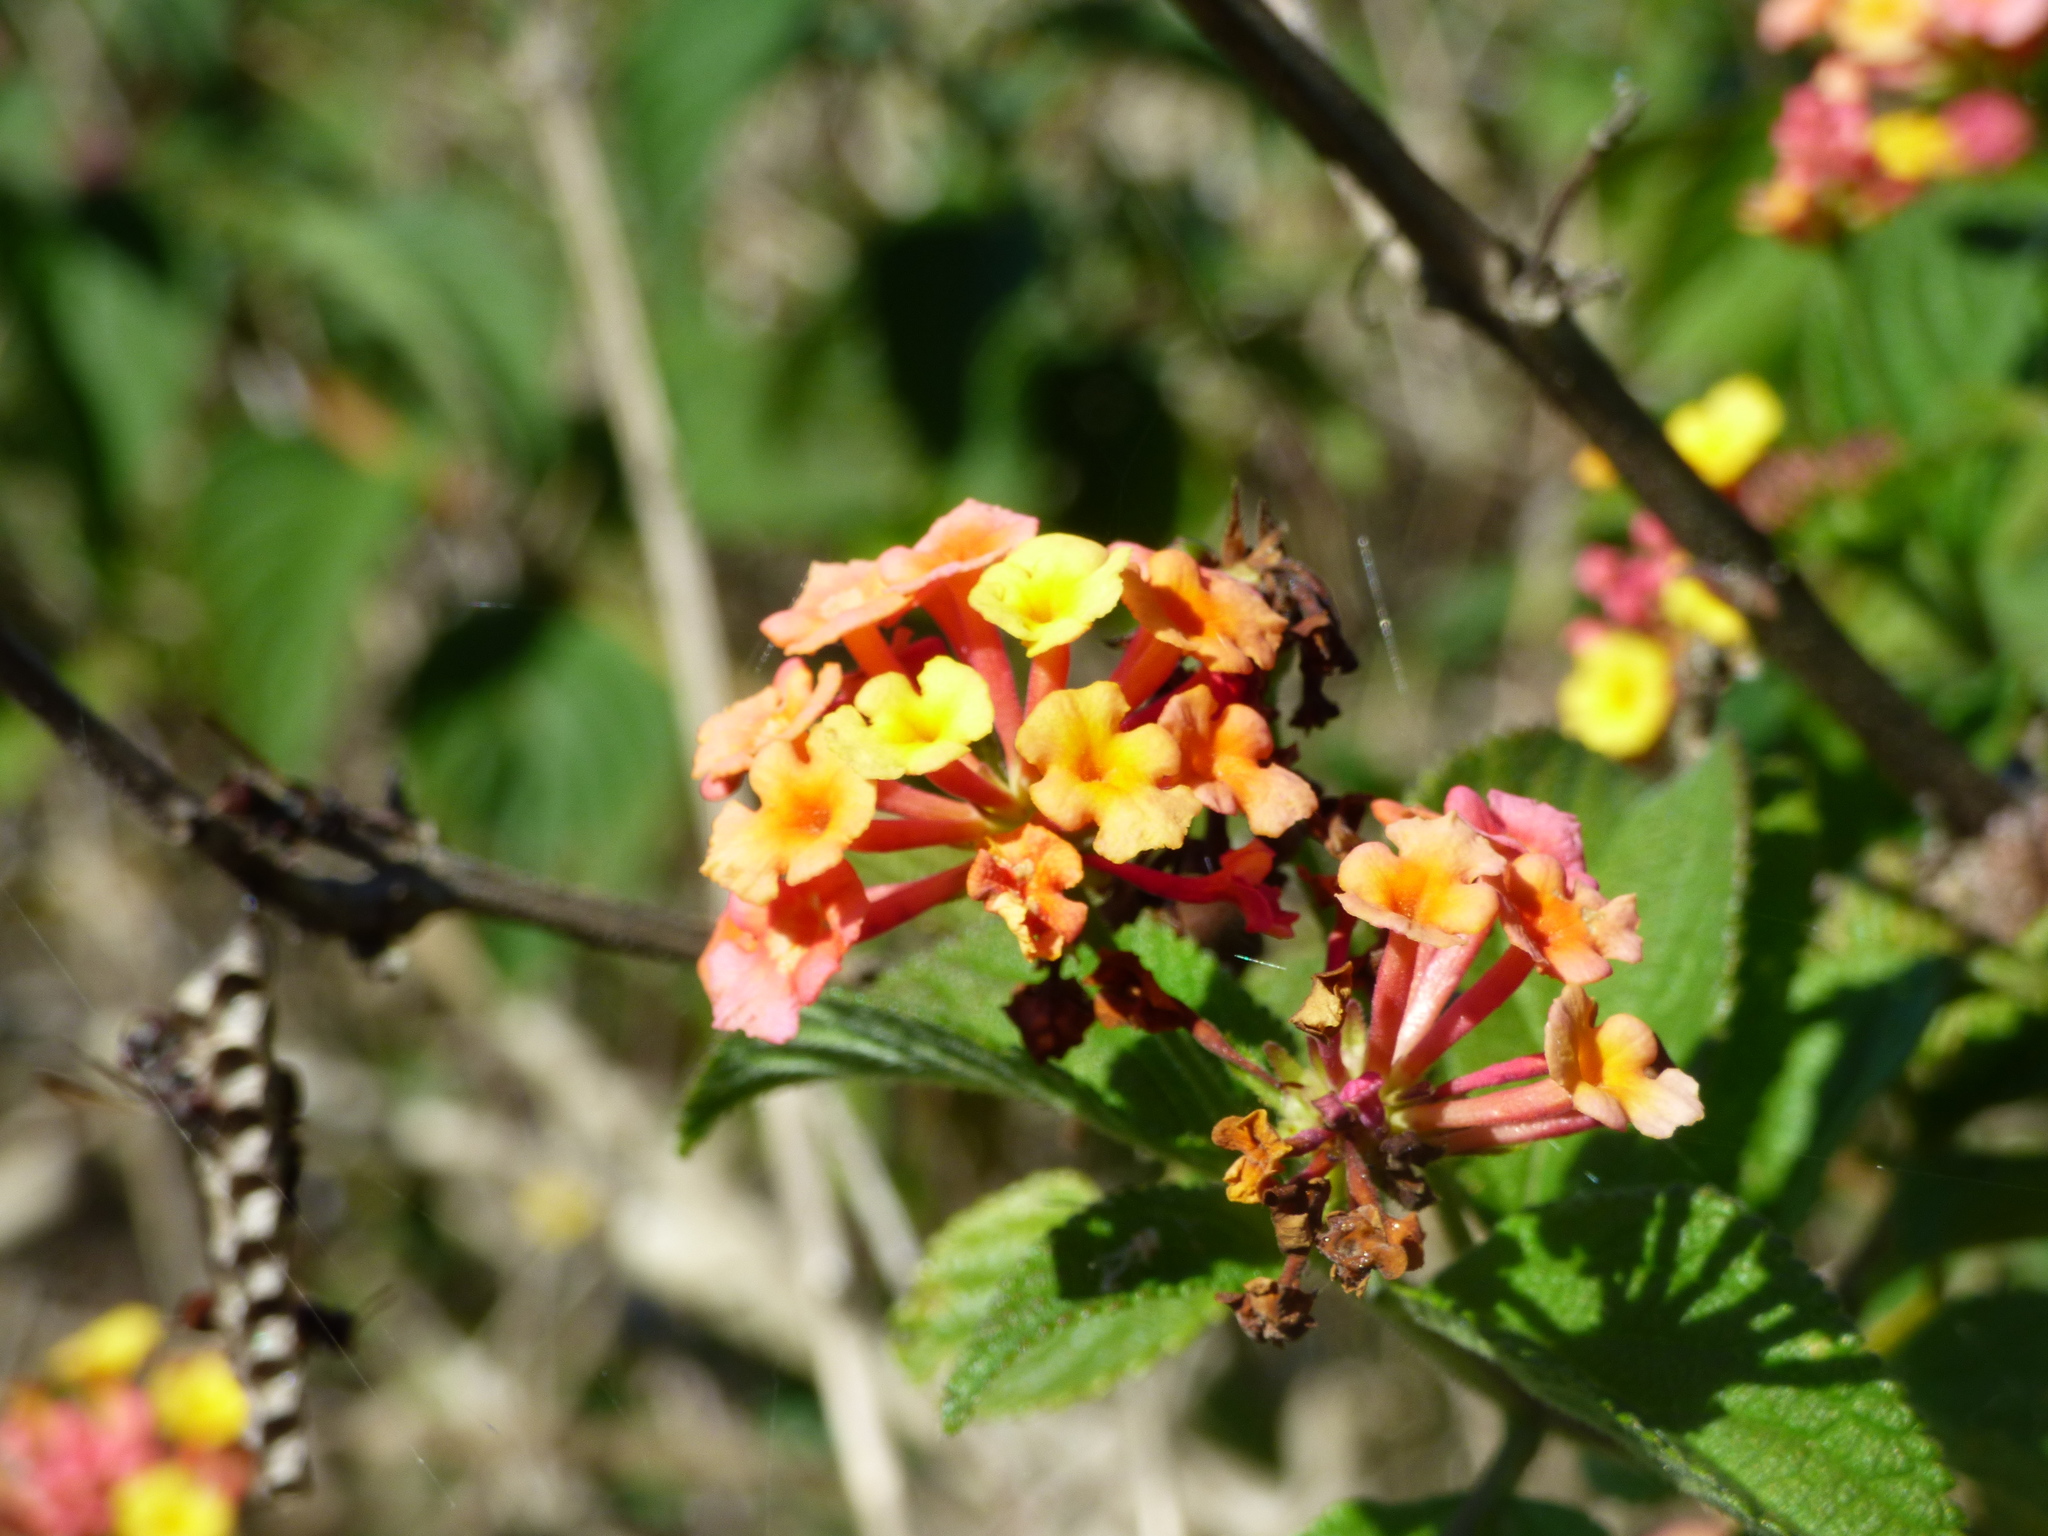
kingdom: Plantae
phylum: Tracheophyta
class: Magnoliopsida
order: Lamiales
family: Verbenaceae
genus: Lantana
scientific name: Lantana camara
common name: Lantana
